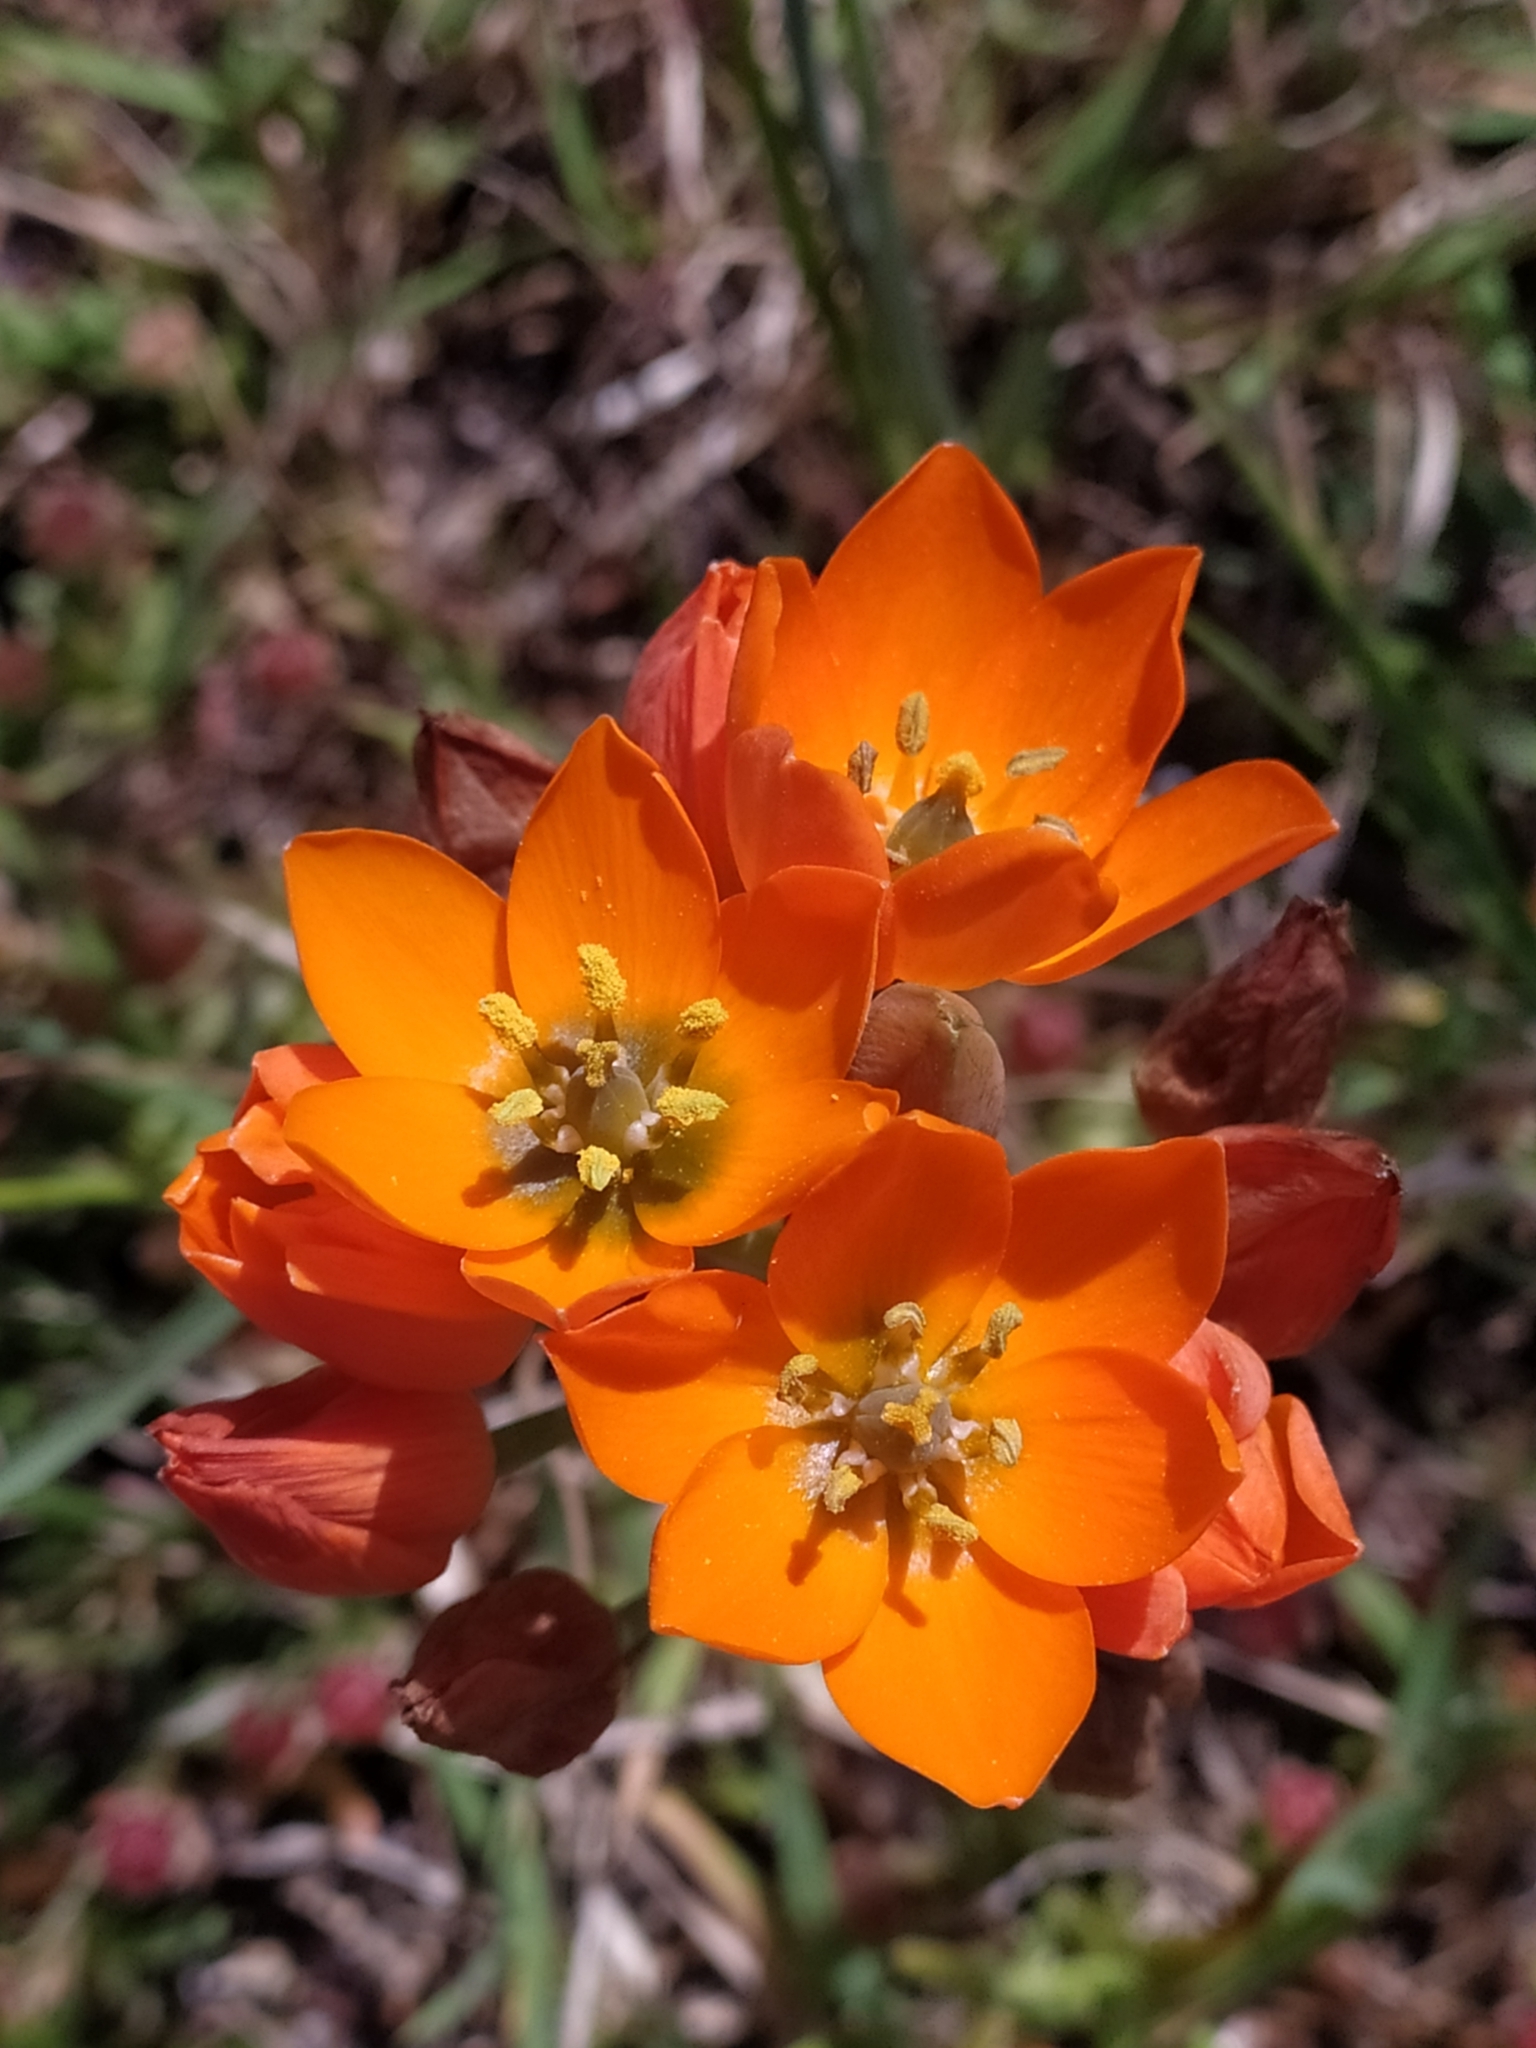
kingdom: Plantae
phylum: Tracheophyta
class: Liliopsida
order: Asparagales
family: Asparagaceae
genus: Ornithogalum
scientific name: Ornithogalum dubium
